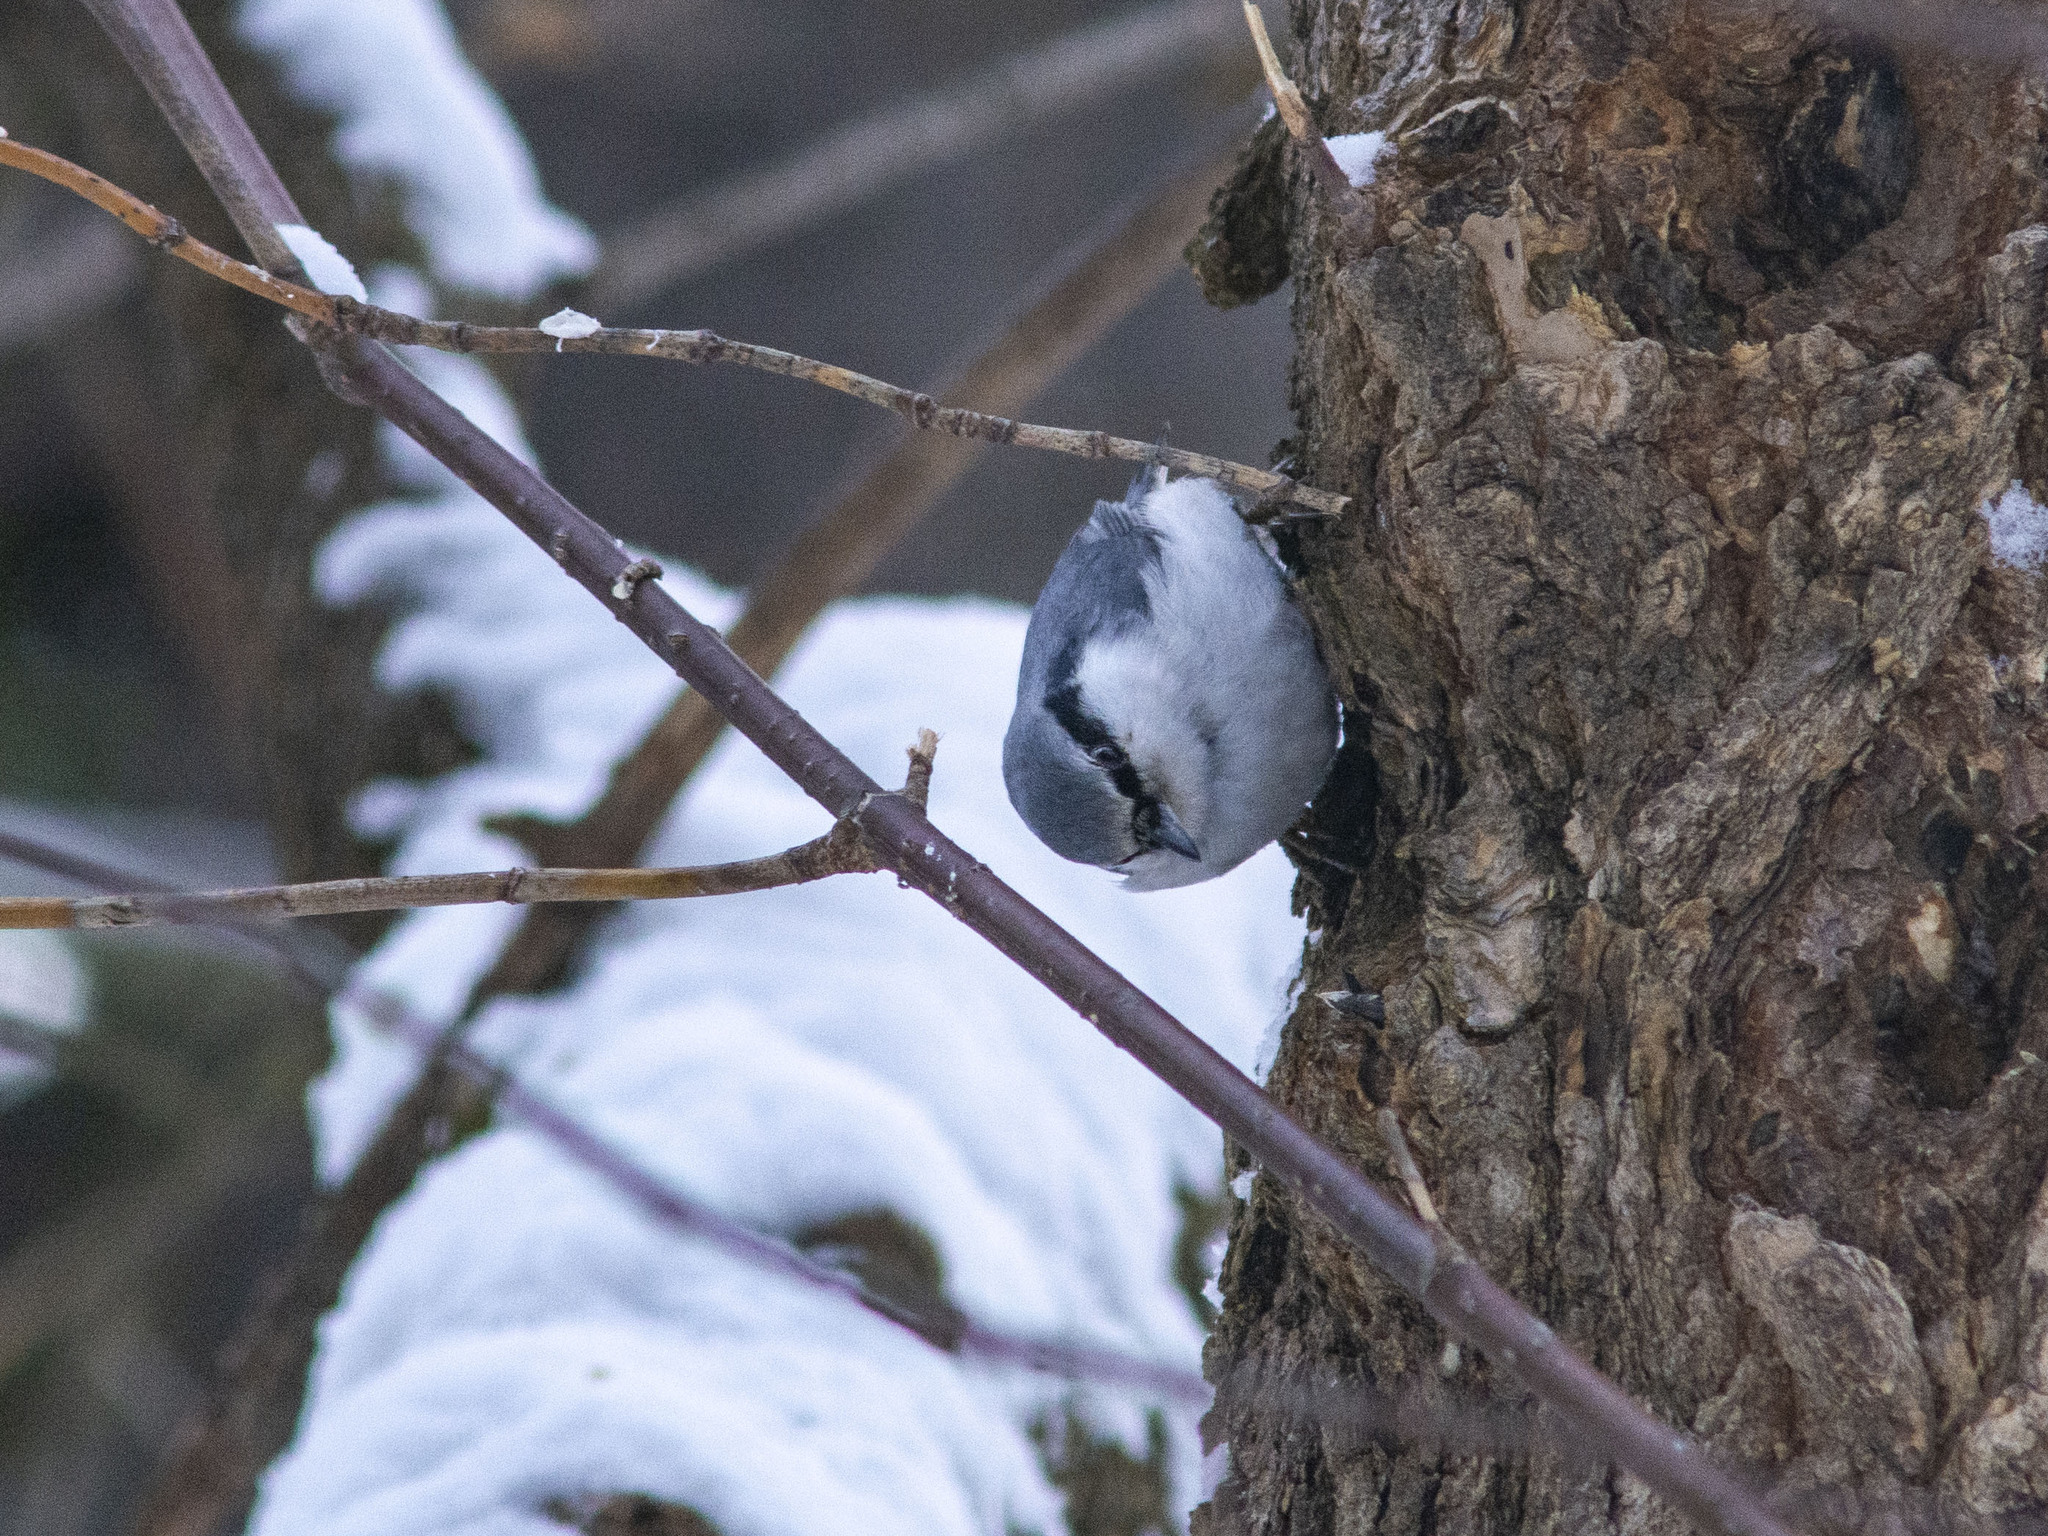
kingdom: Animalia
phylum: Chordata
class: Aves
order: Passeriformes
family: Sittidae
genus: Sitta
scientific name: Sitta europaea
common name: Eurasian nuthatch
